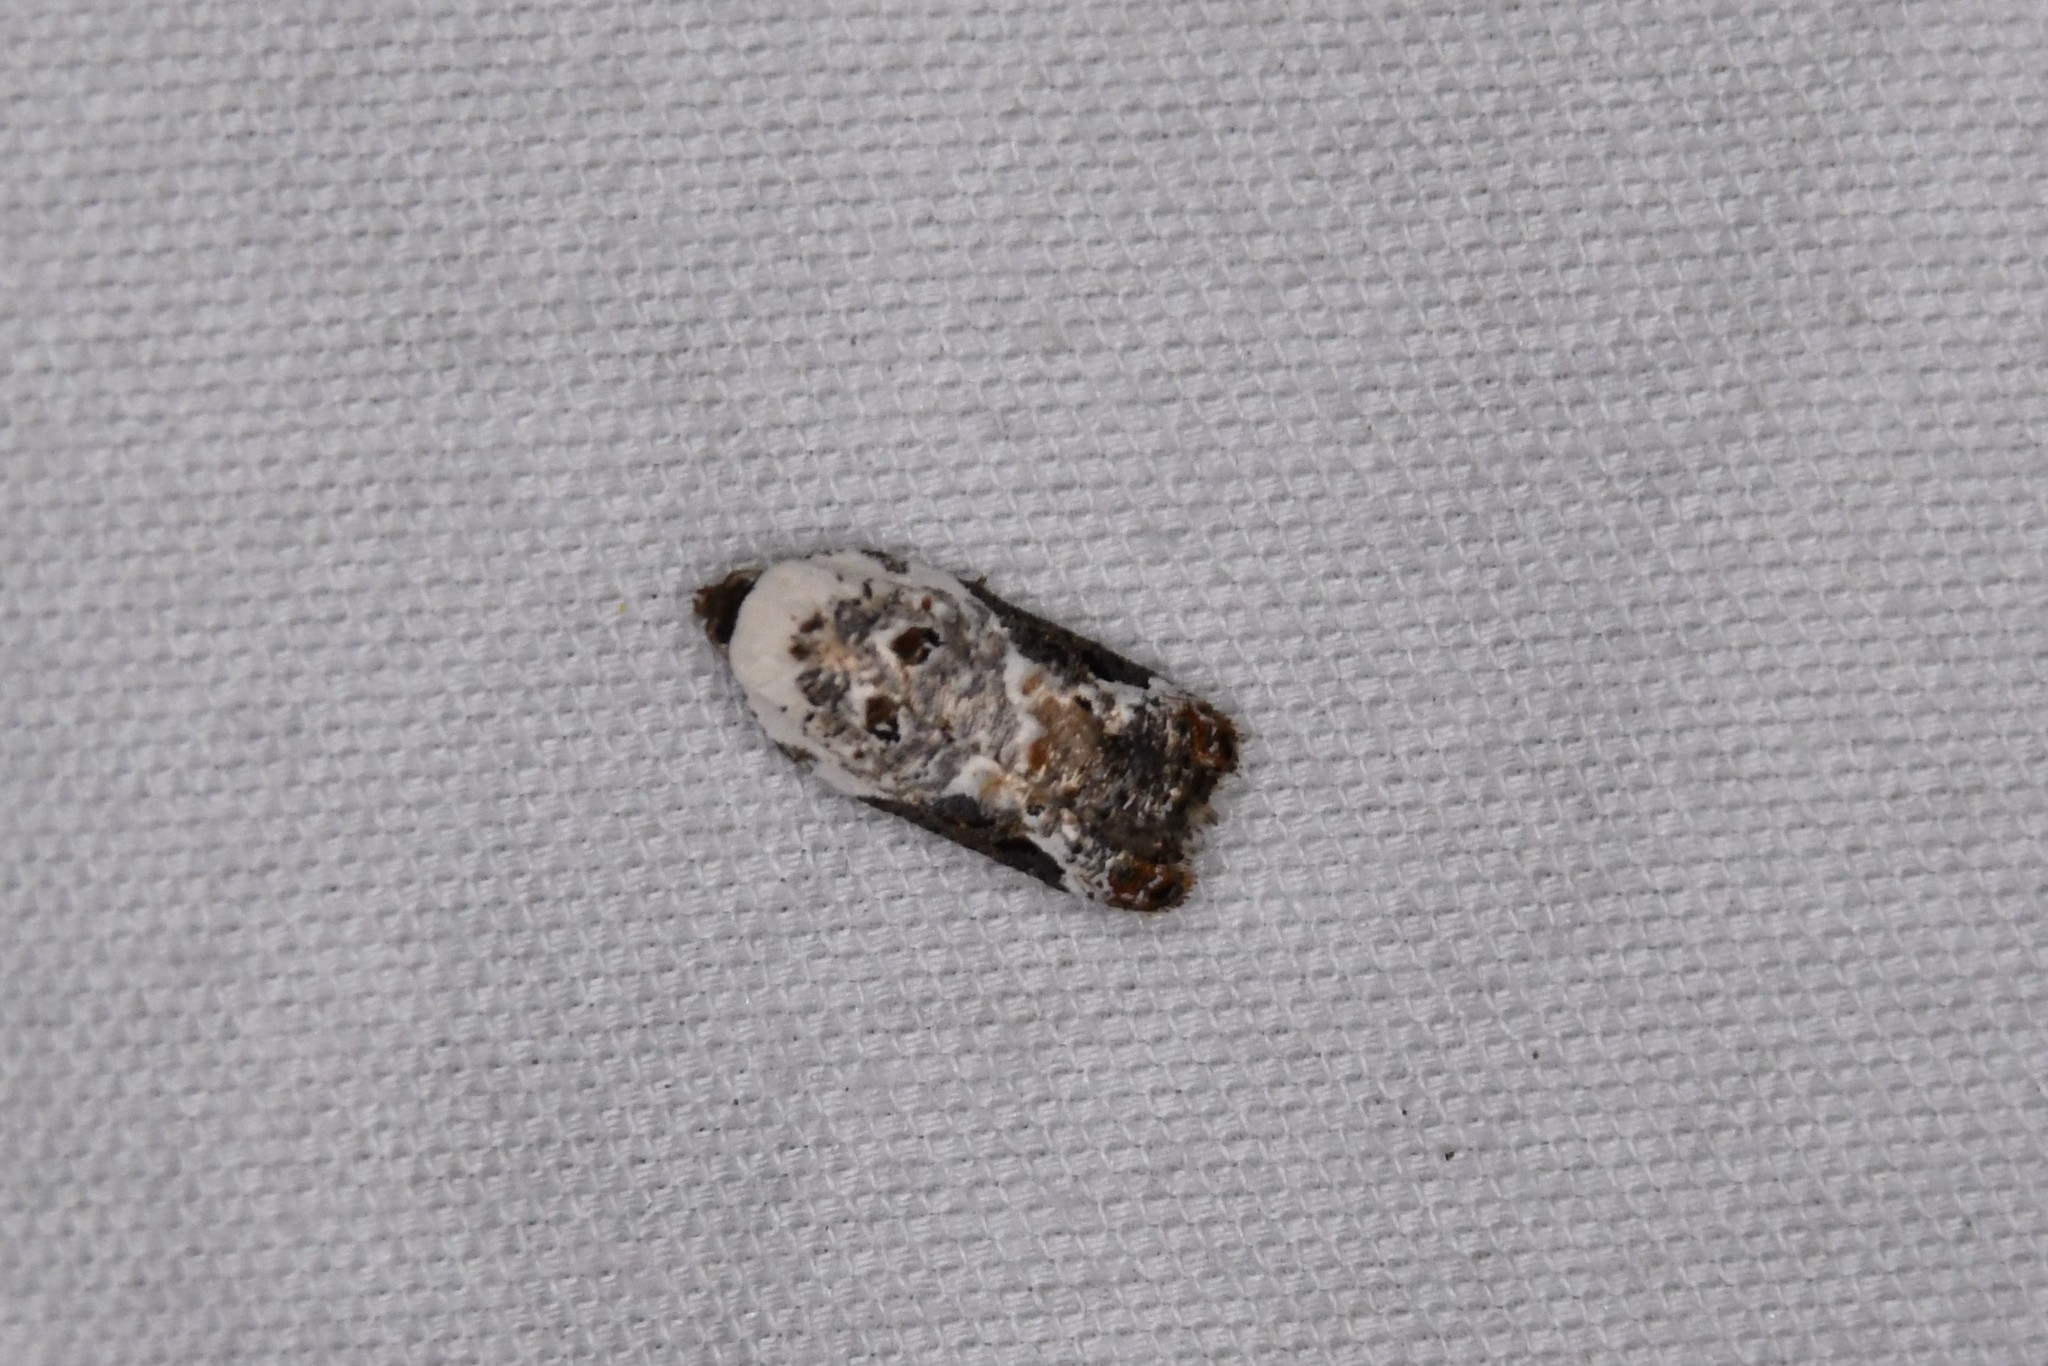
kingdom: Animalia
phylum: Arthropoda
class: Insecta
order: Lepidoptera
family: Tortricidae
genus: Acleris
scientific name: Acleris nivisellana
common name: Snowy-shouldered acleris moth
